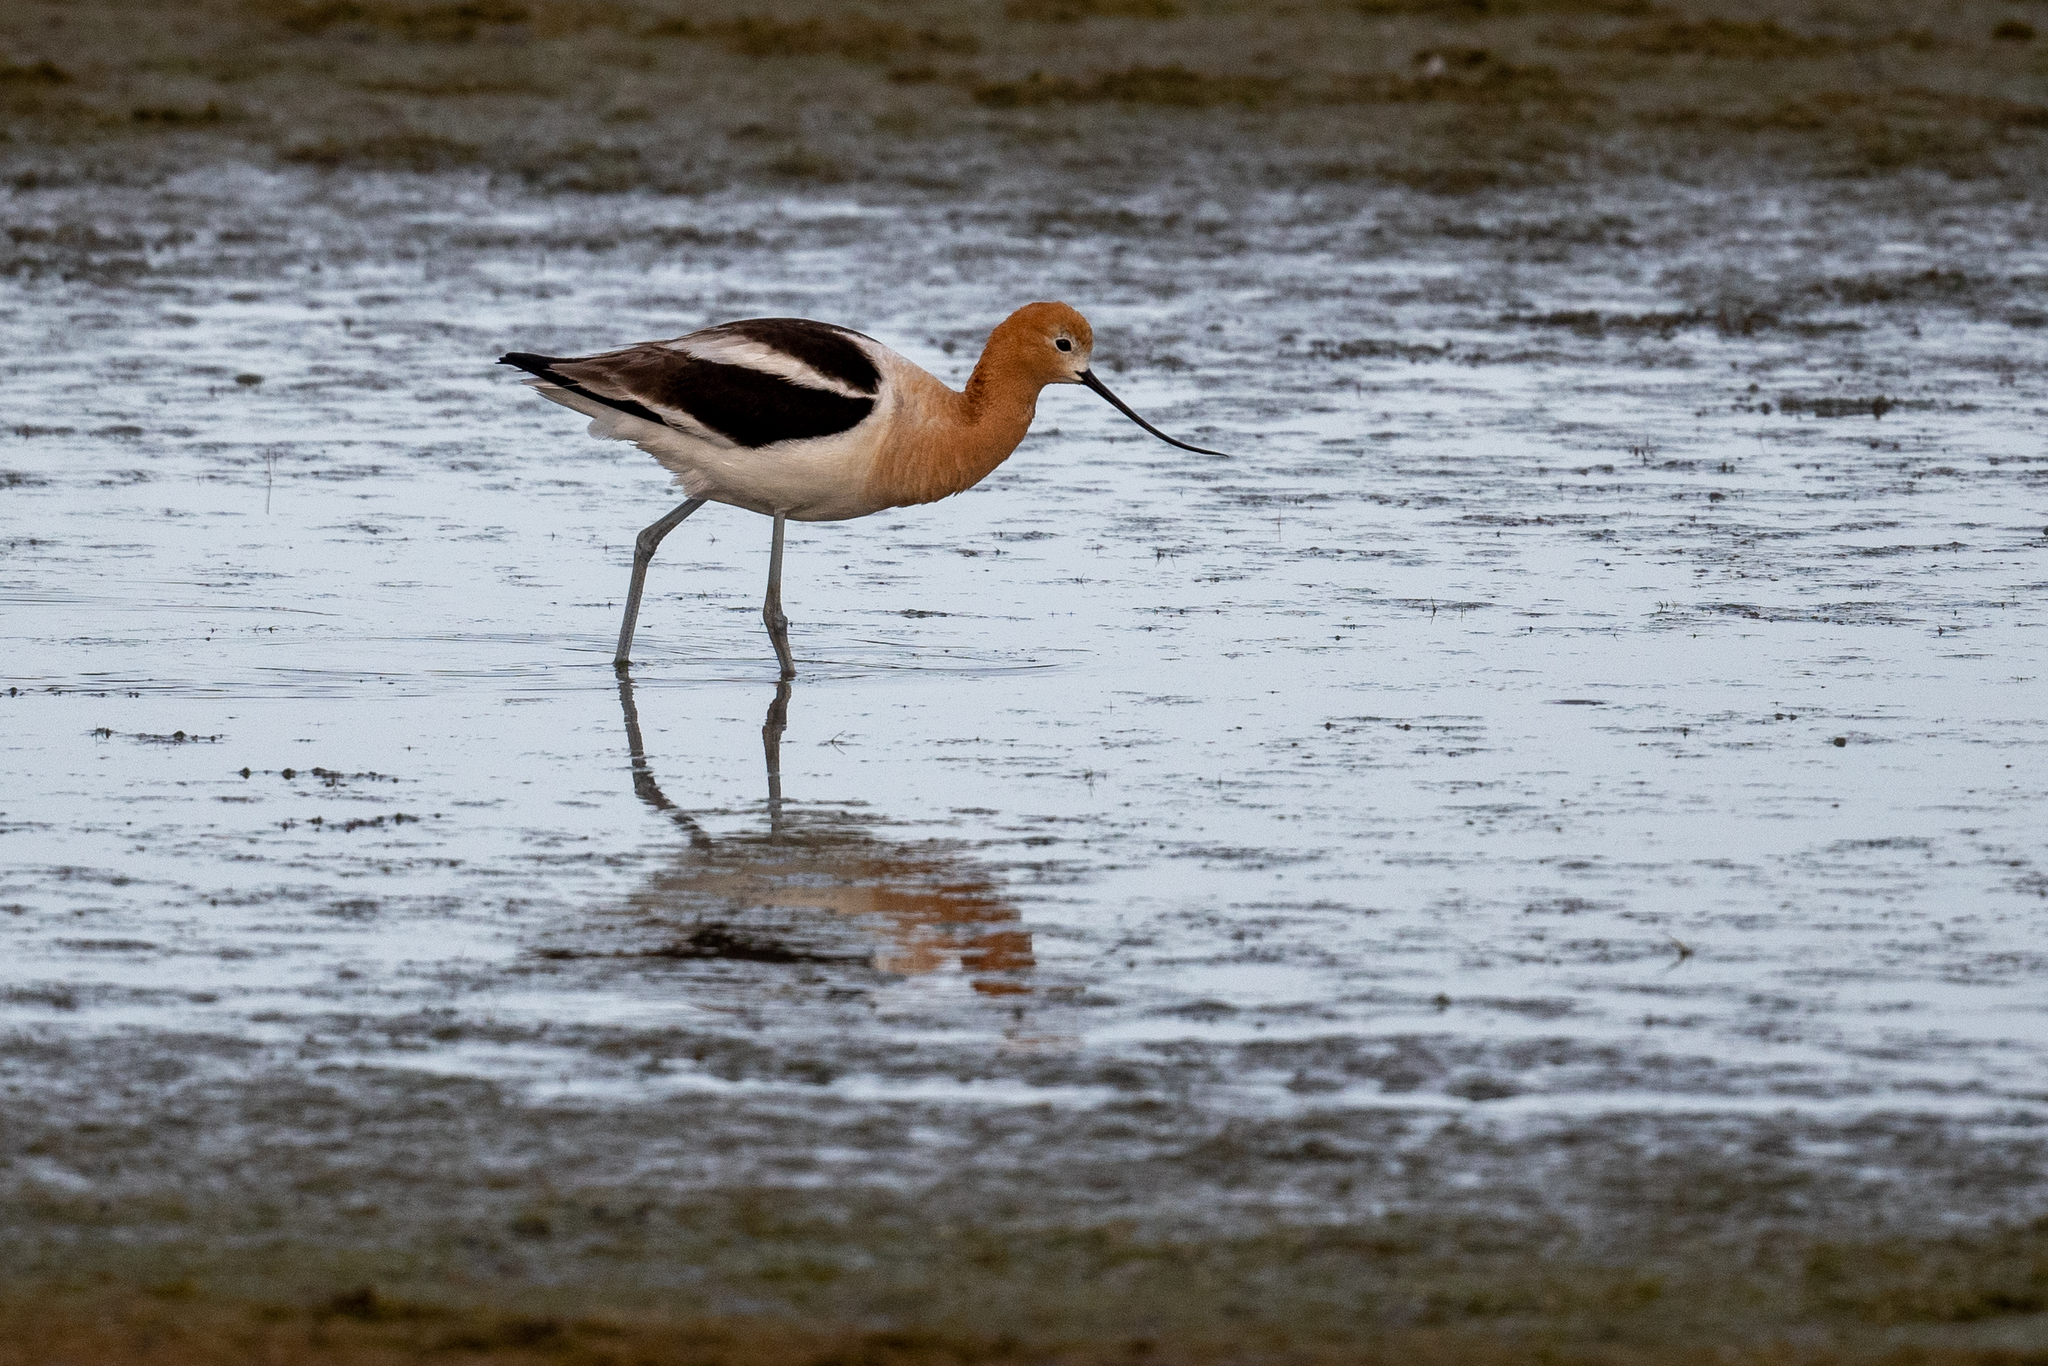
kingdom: Animalia
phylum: Chordata
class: Aves
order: Charadriiformes
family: Recurvirostridae
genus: Recurvirostra
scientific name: Recurvirostra americana
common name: American avocet
